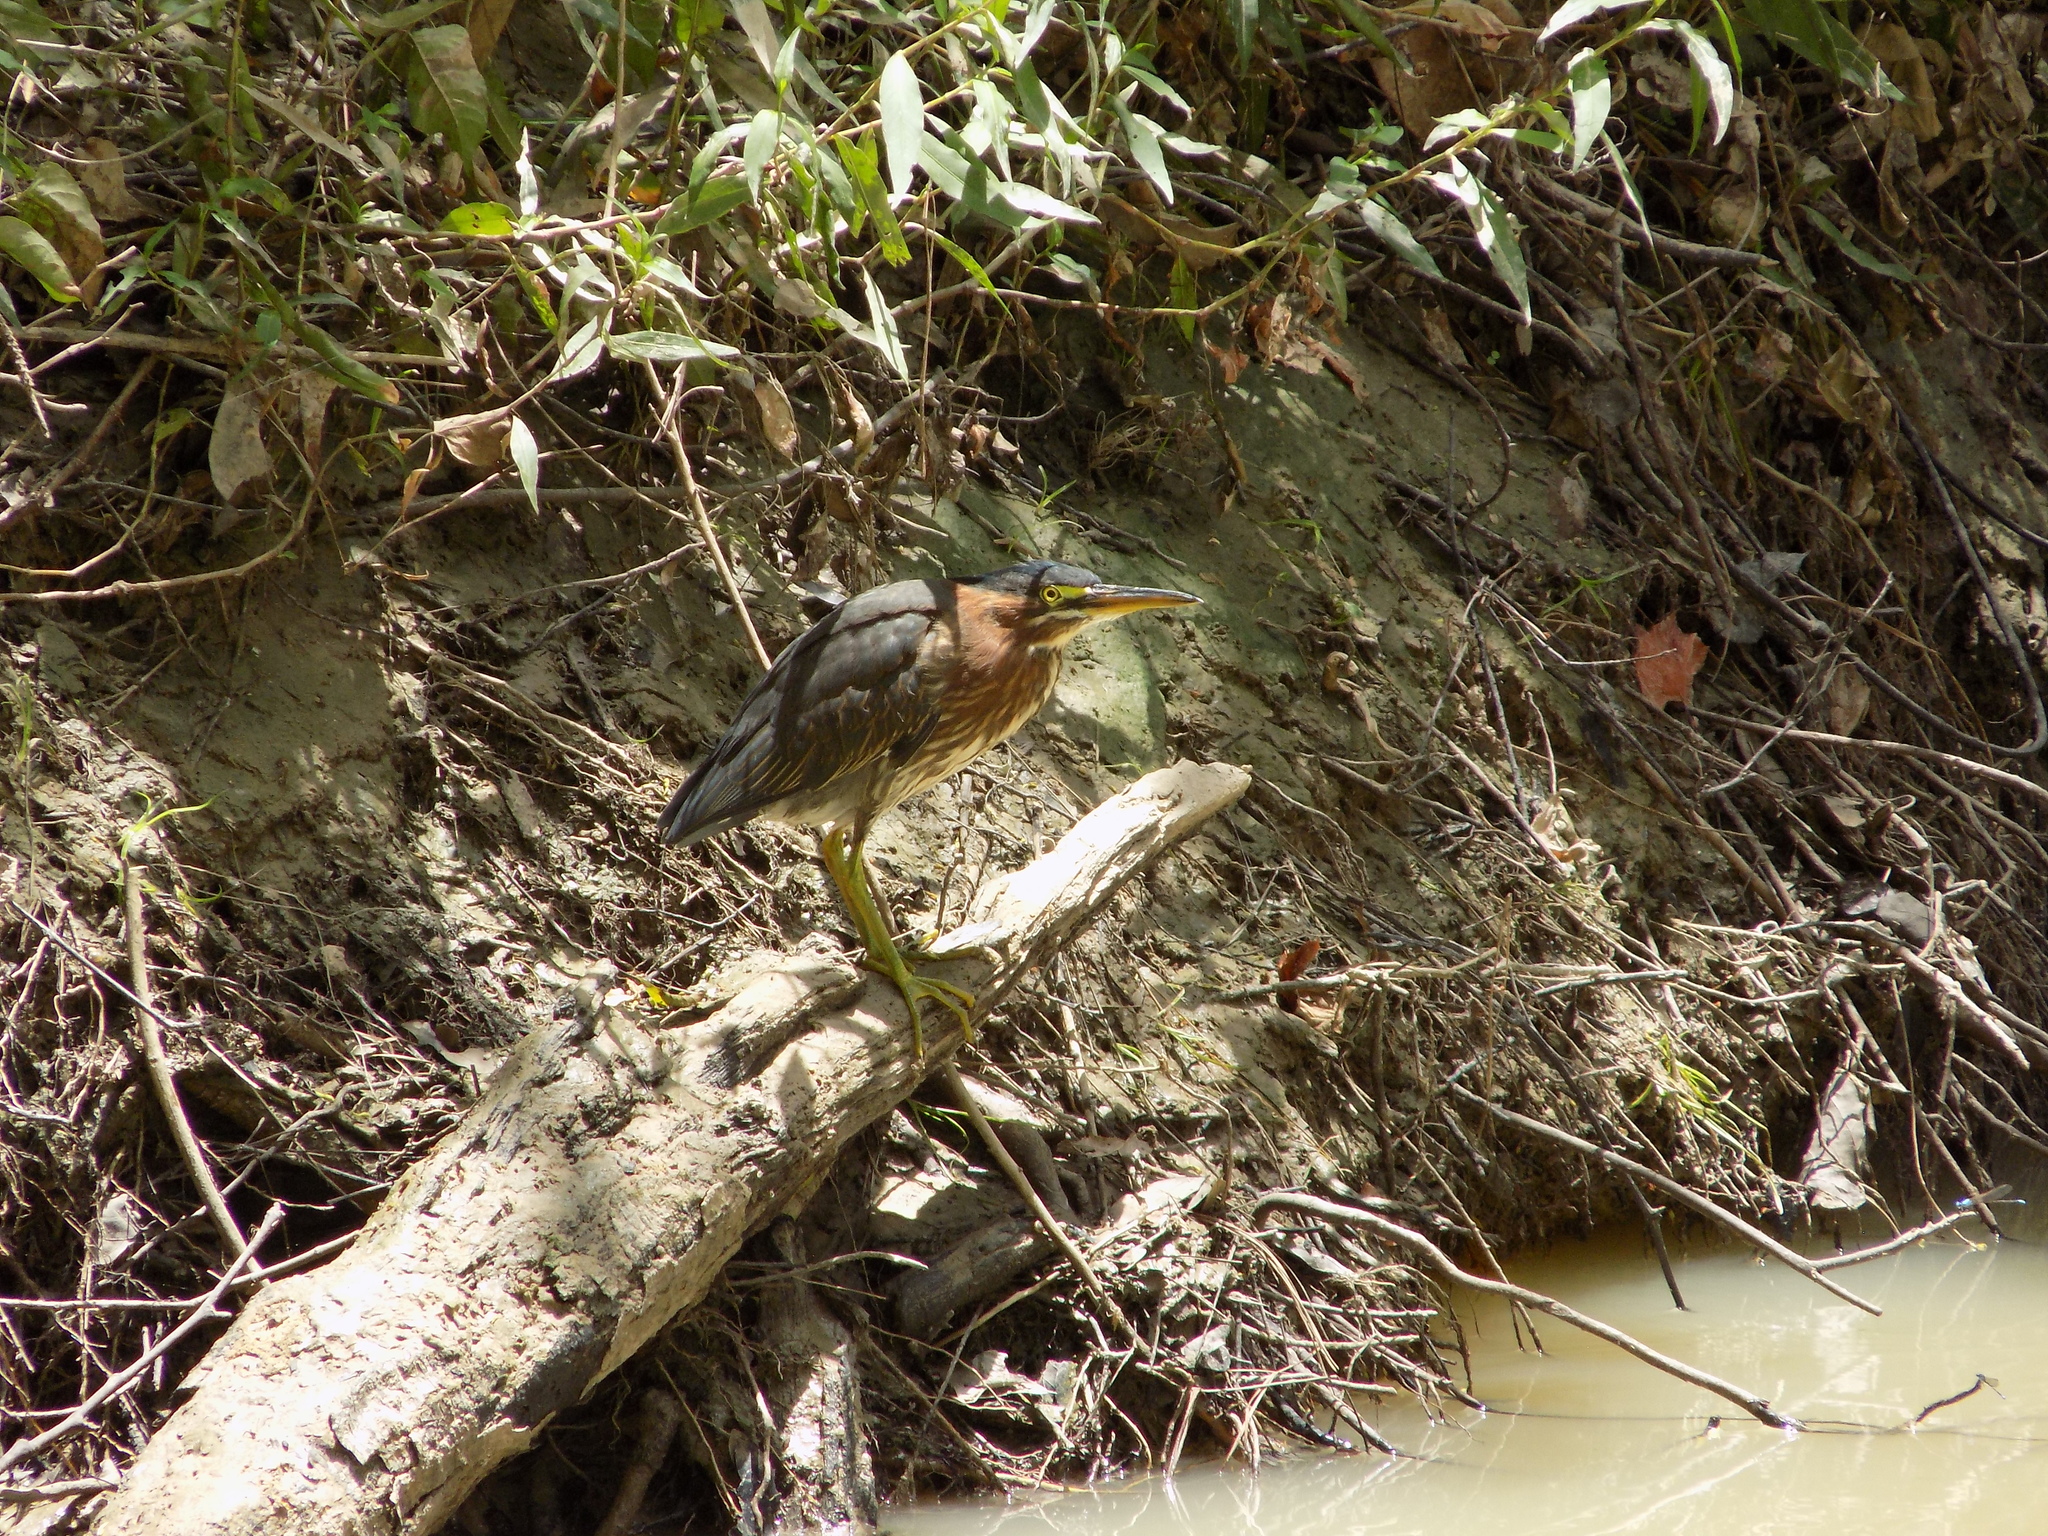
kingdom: Animalia
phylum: Chordata
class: Aves
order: Pelecaniformes
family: Ardeidae
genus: Butorides
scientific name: Butorides virescens
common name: Green heron
